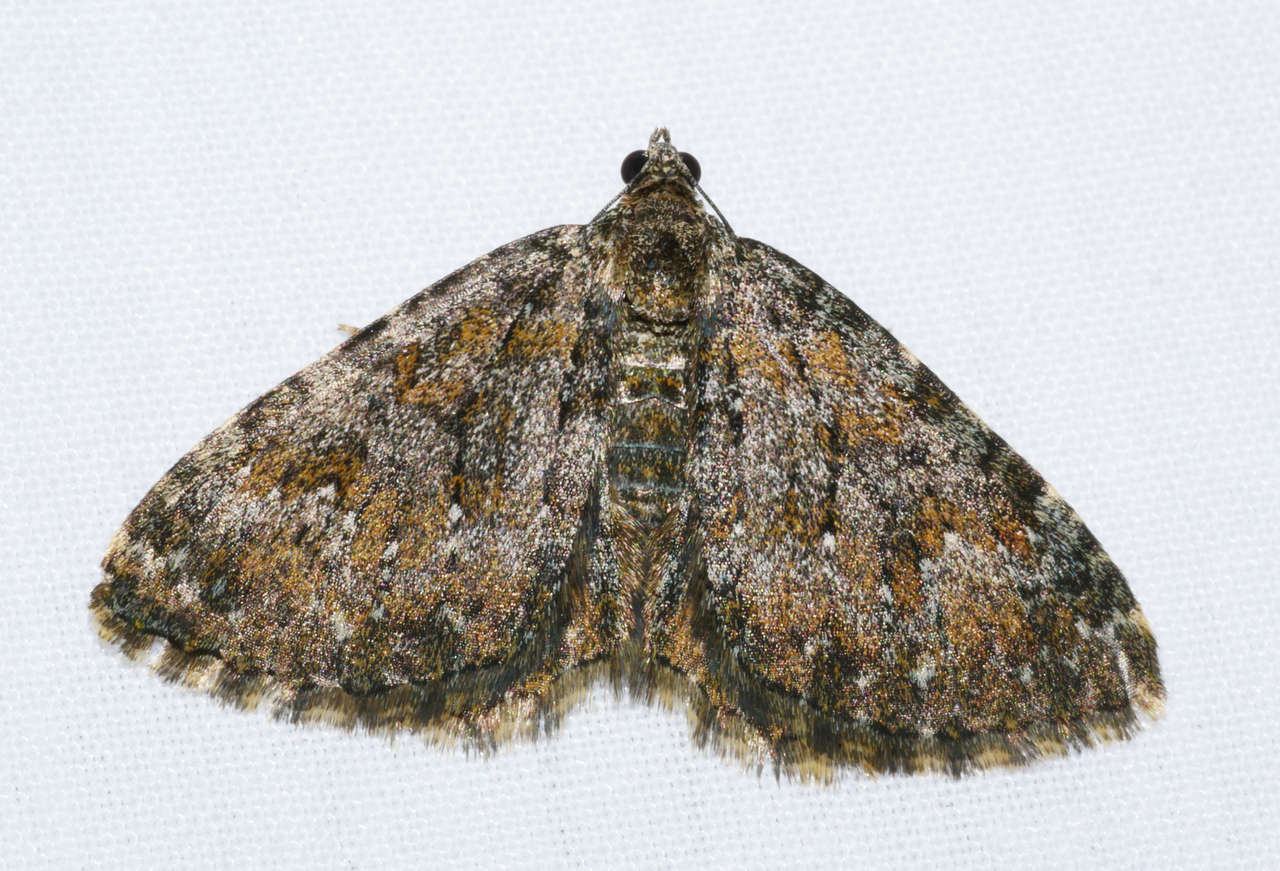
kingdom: Animalia
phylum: Arthropoda
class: Insecta
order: Lepidoptera
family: Geometridae
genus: Chrysolarentia
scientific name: Chrysolarentia aglaodes
